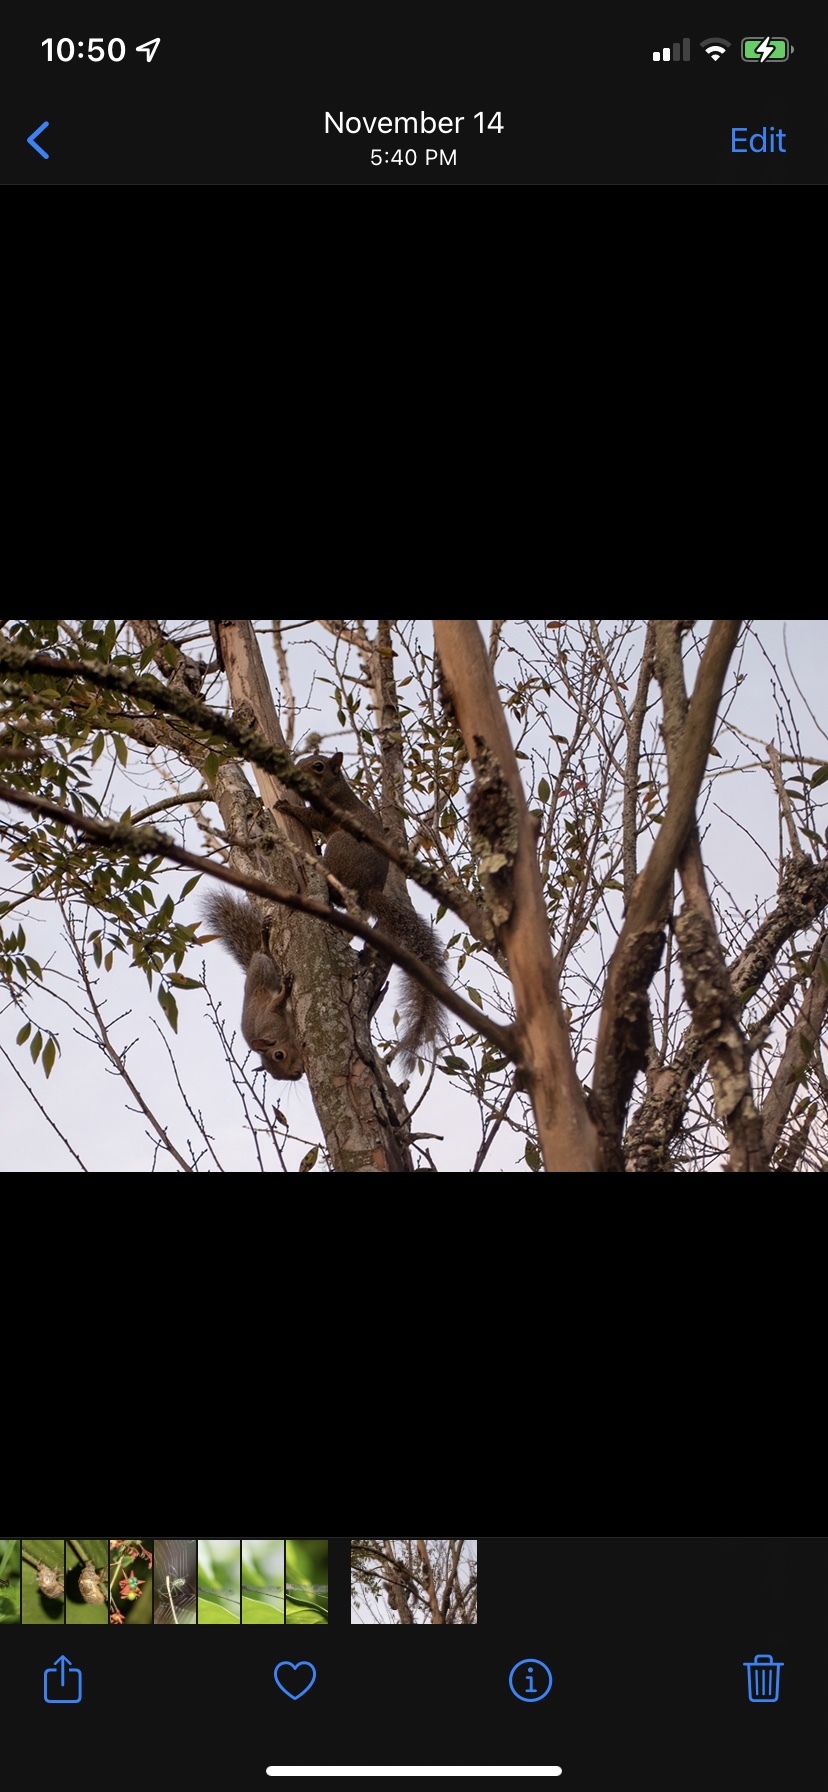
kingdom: Animalia
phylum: Chordata
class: Mammalia
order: Rodentia
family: Sciuridae
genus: Sciurus
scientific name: Sciurus carolinensis
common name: Eastern gray squirrel
